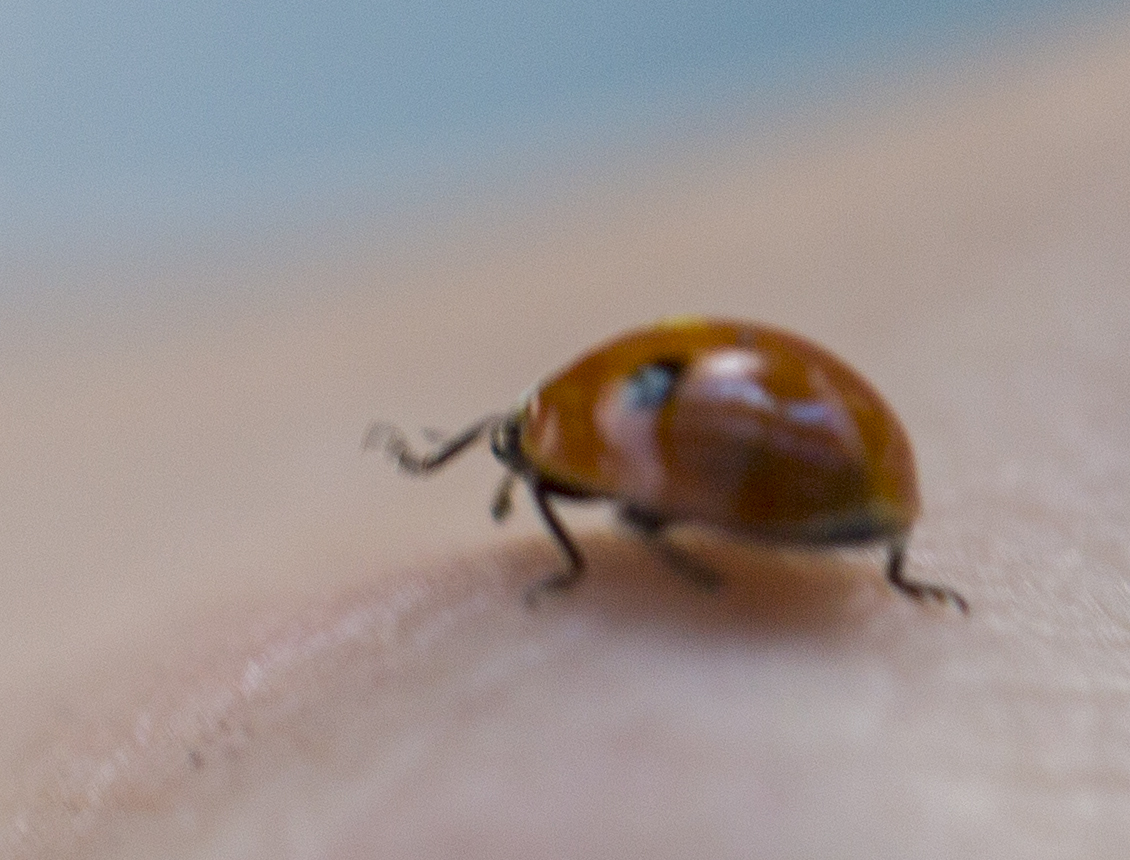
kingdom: Animalia
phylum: Arthropoda
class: Insecta
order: Coleoptera
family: Coccinellidae
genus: Adalia
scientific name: Adalia bipunctata
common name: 2-spot ladybird
